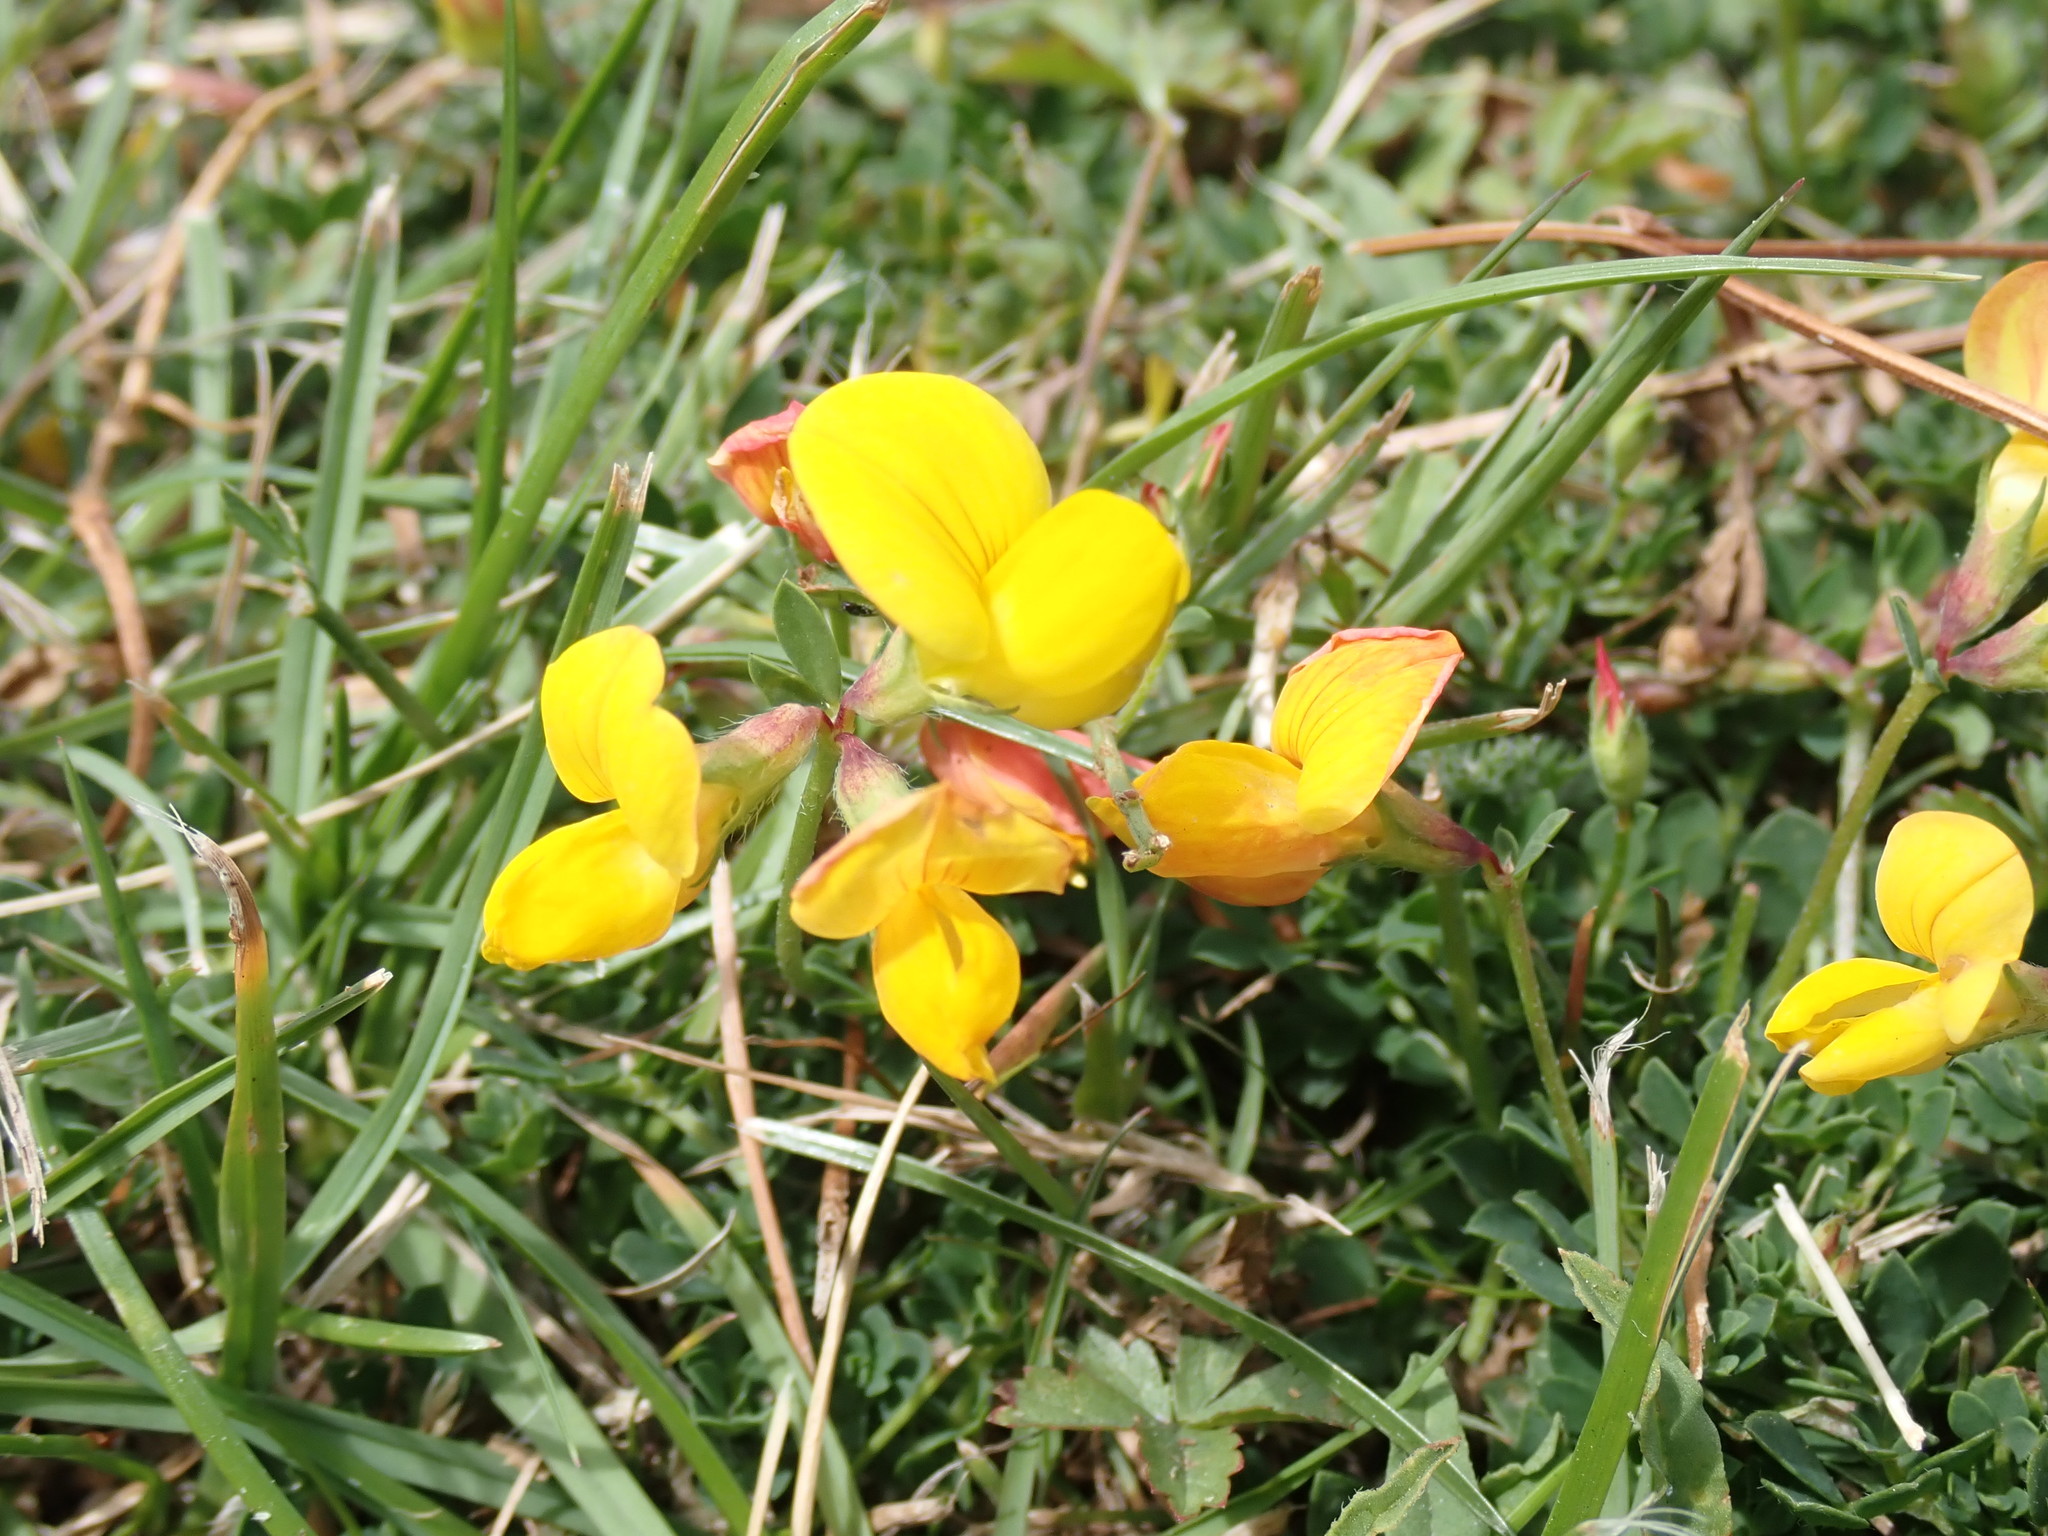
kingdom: Plantae
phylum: Tracheophyta
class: Magnoliopsida
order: Fabales
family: Fabaceae
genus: Lotus
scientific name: Lotus corniculatus
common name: Common bird's-foot-trefoil
